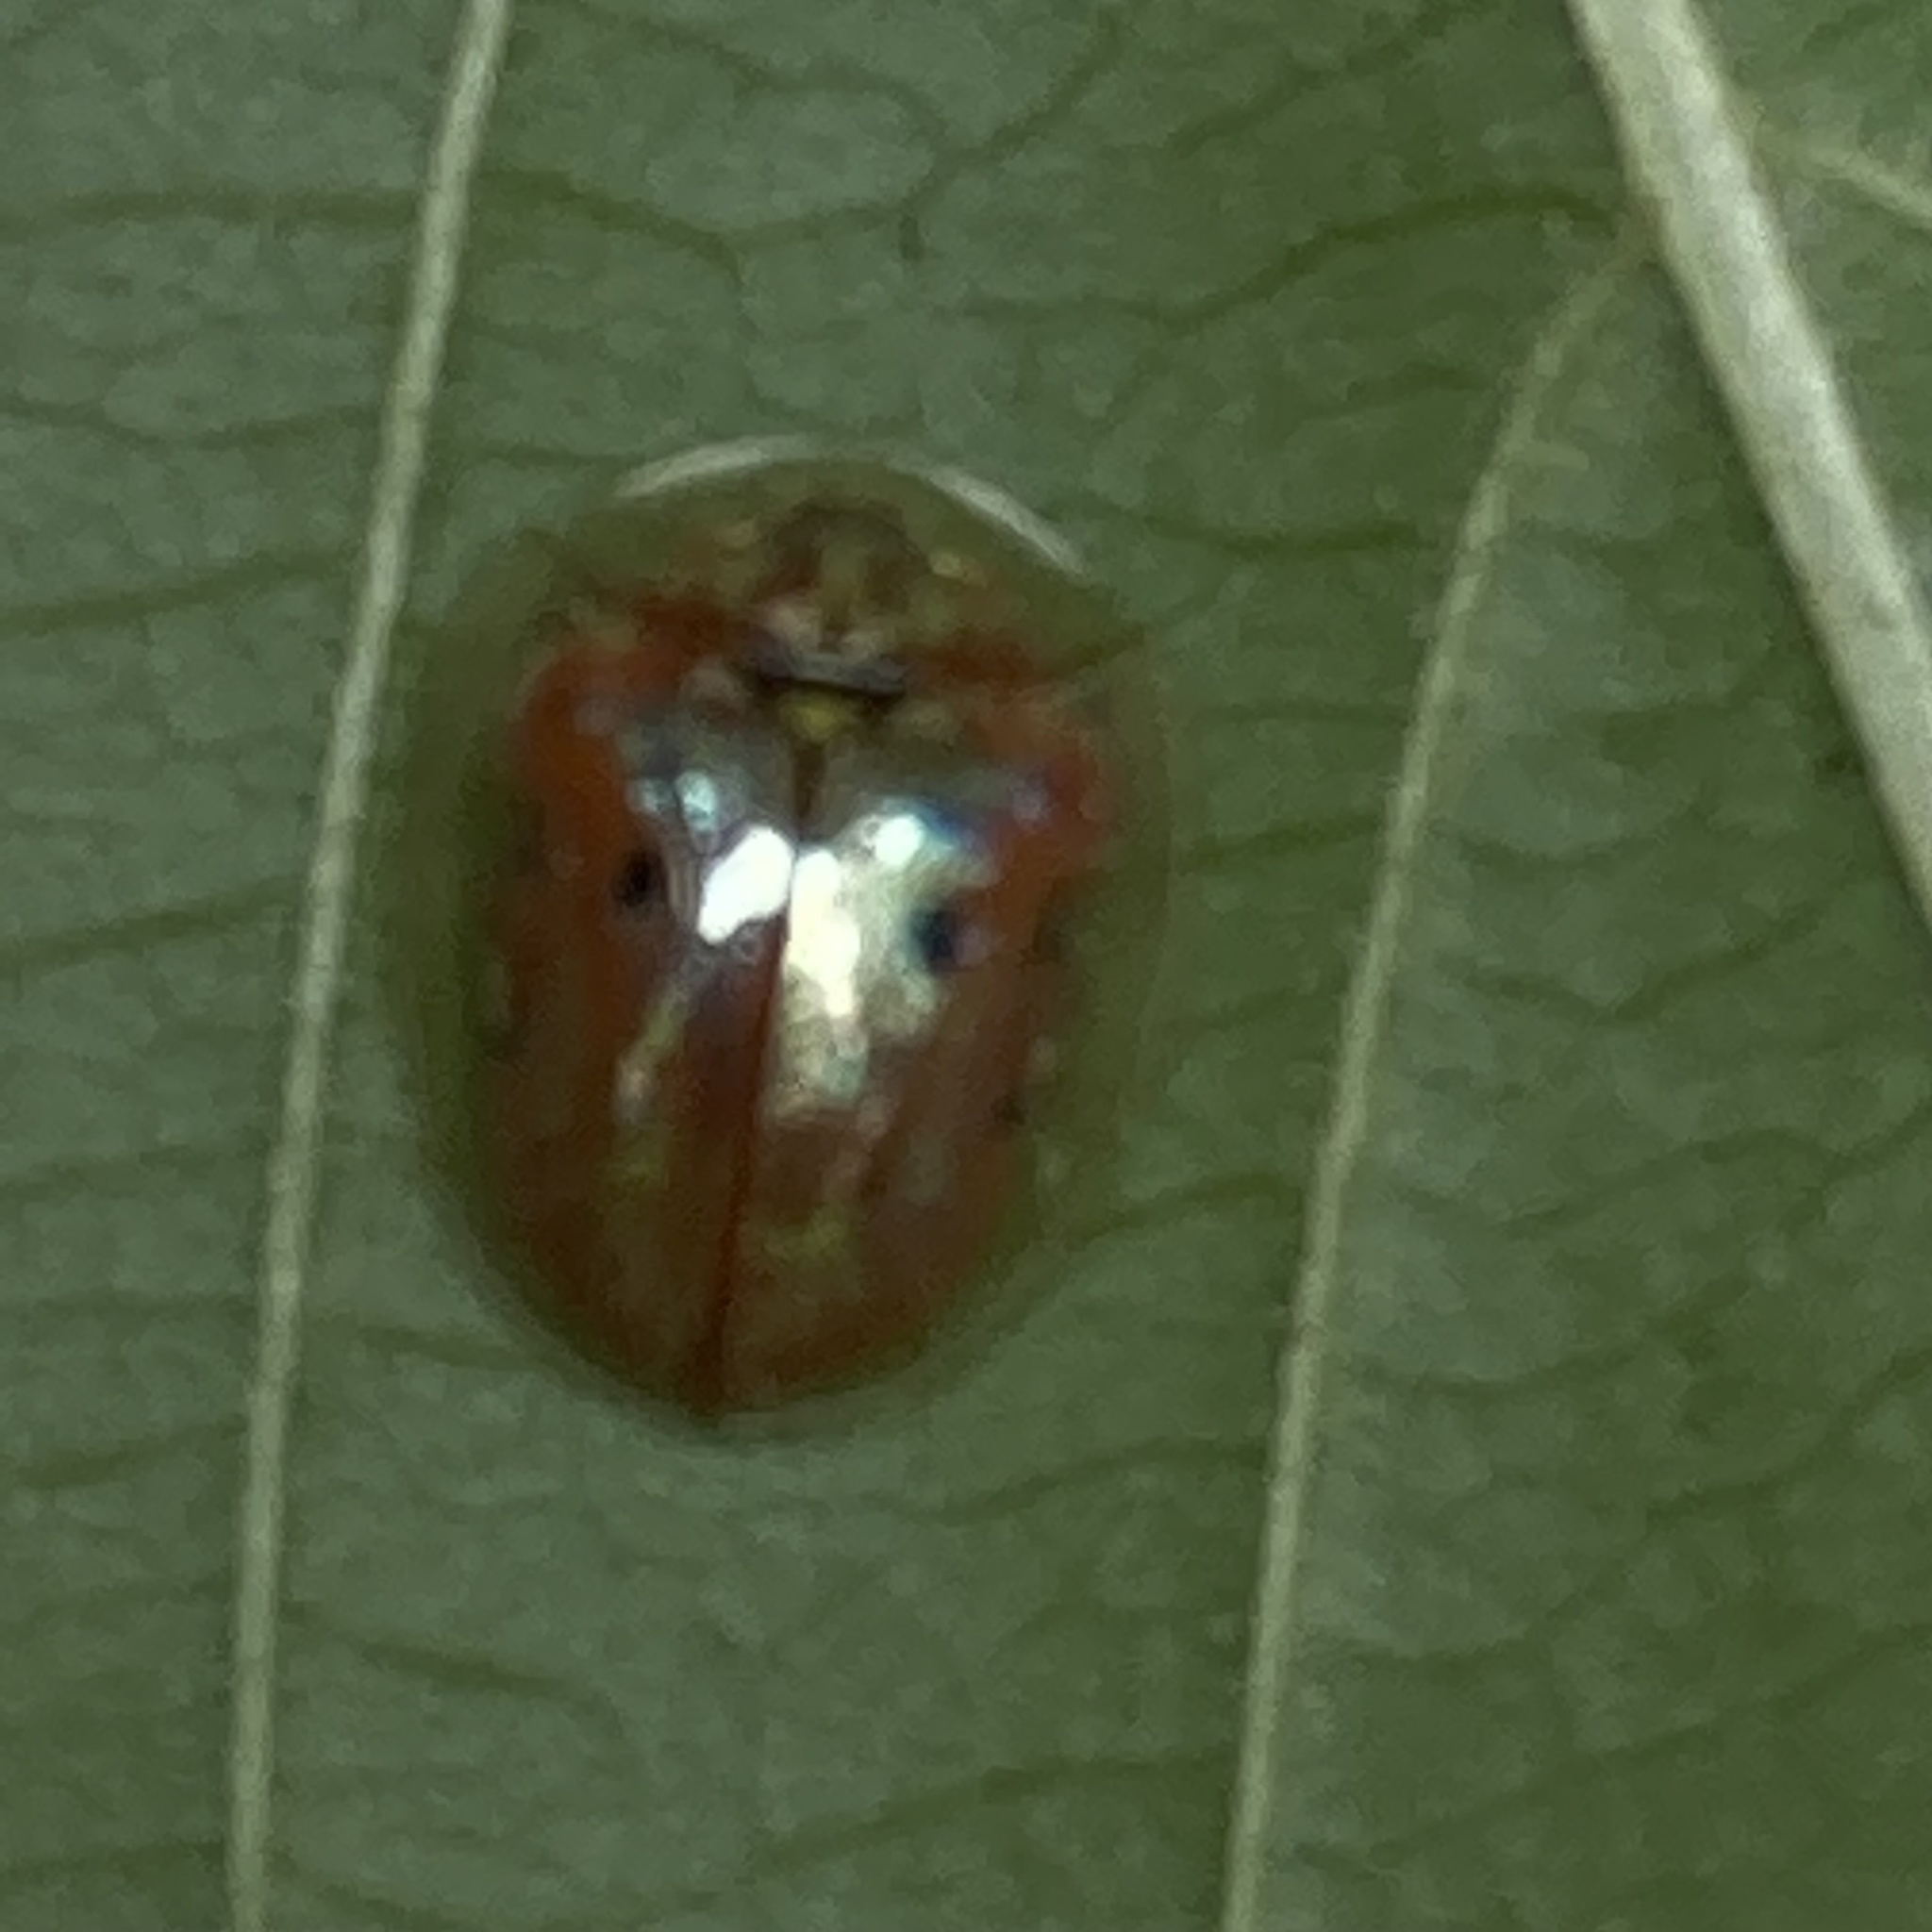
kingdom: Animalia
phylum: Arthropoda
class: Insecta
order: Coleoptera
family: Chrysomelidae
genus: Charidotella
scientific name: Charidotella sexpunctata
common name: Golden tortoise beetle
